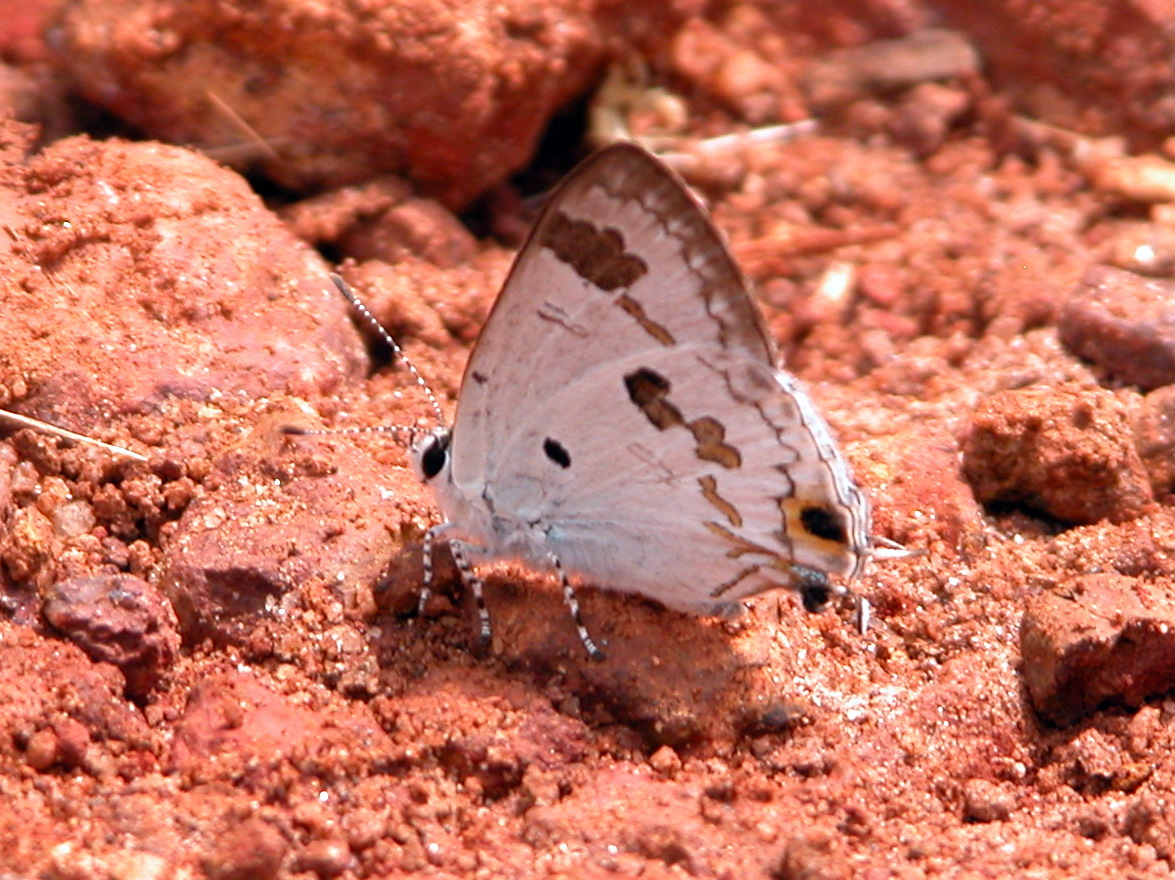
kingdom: Animalia
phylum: Arthropoda
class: Insecta
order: Lepidoptera
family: Lycaenidae
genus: Chliaria
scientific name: Chliaria othona
